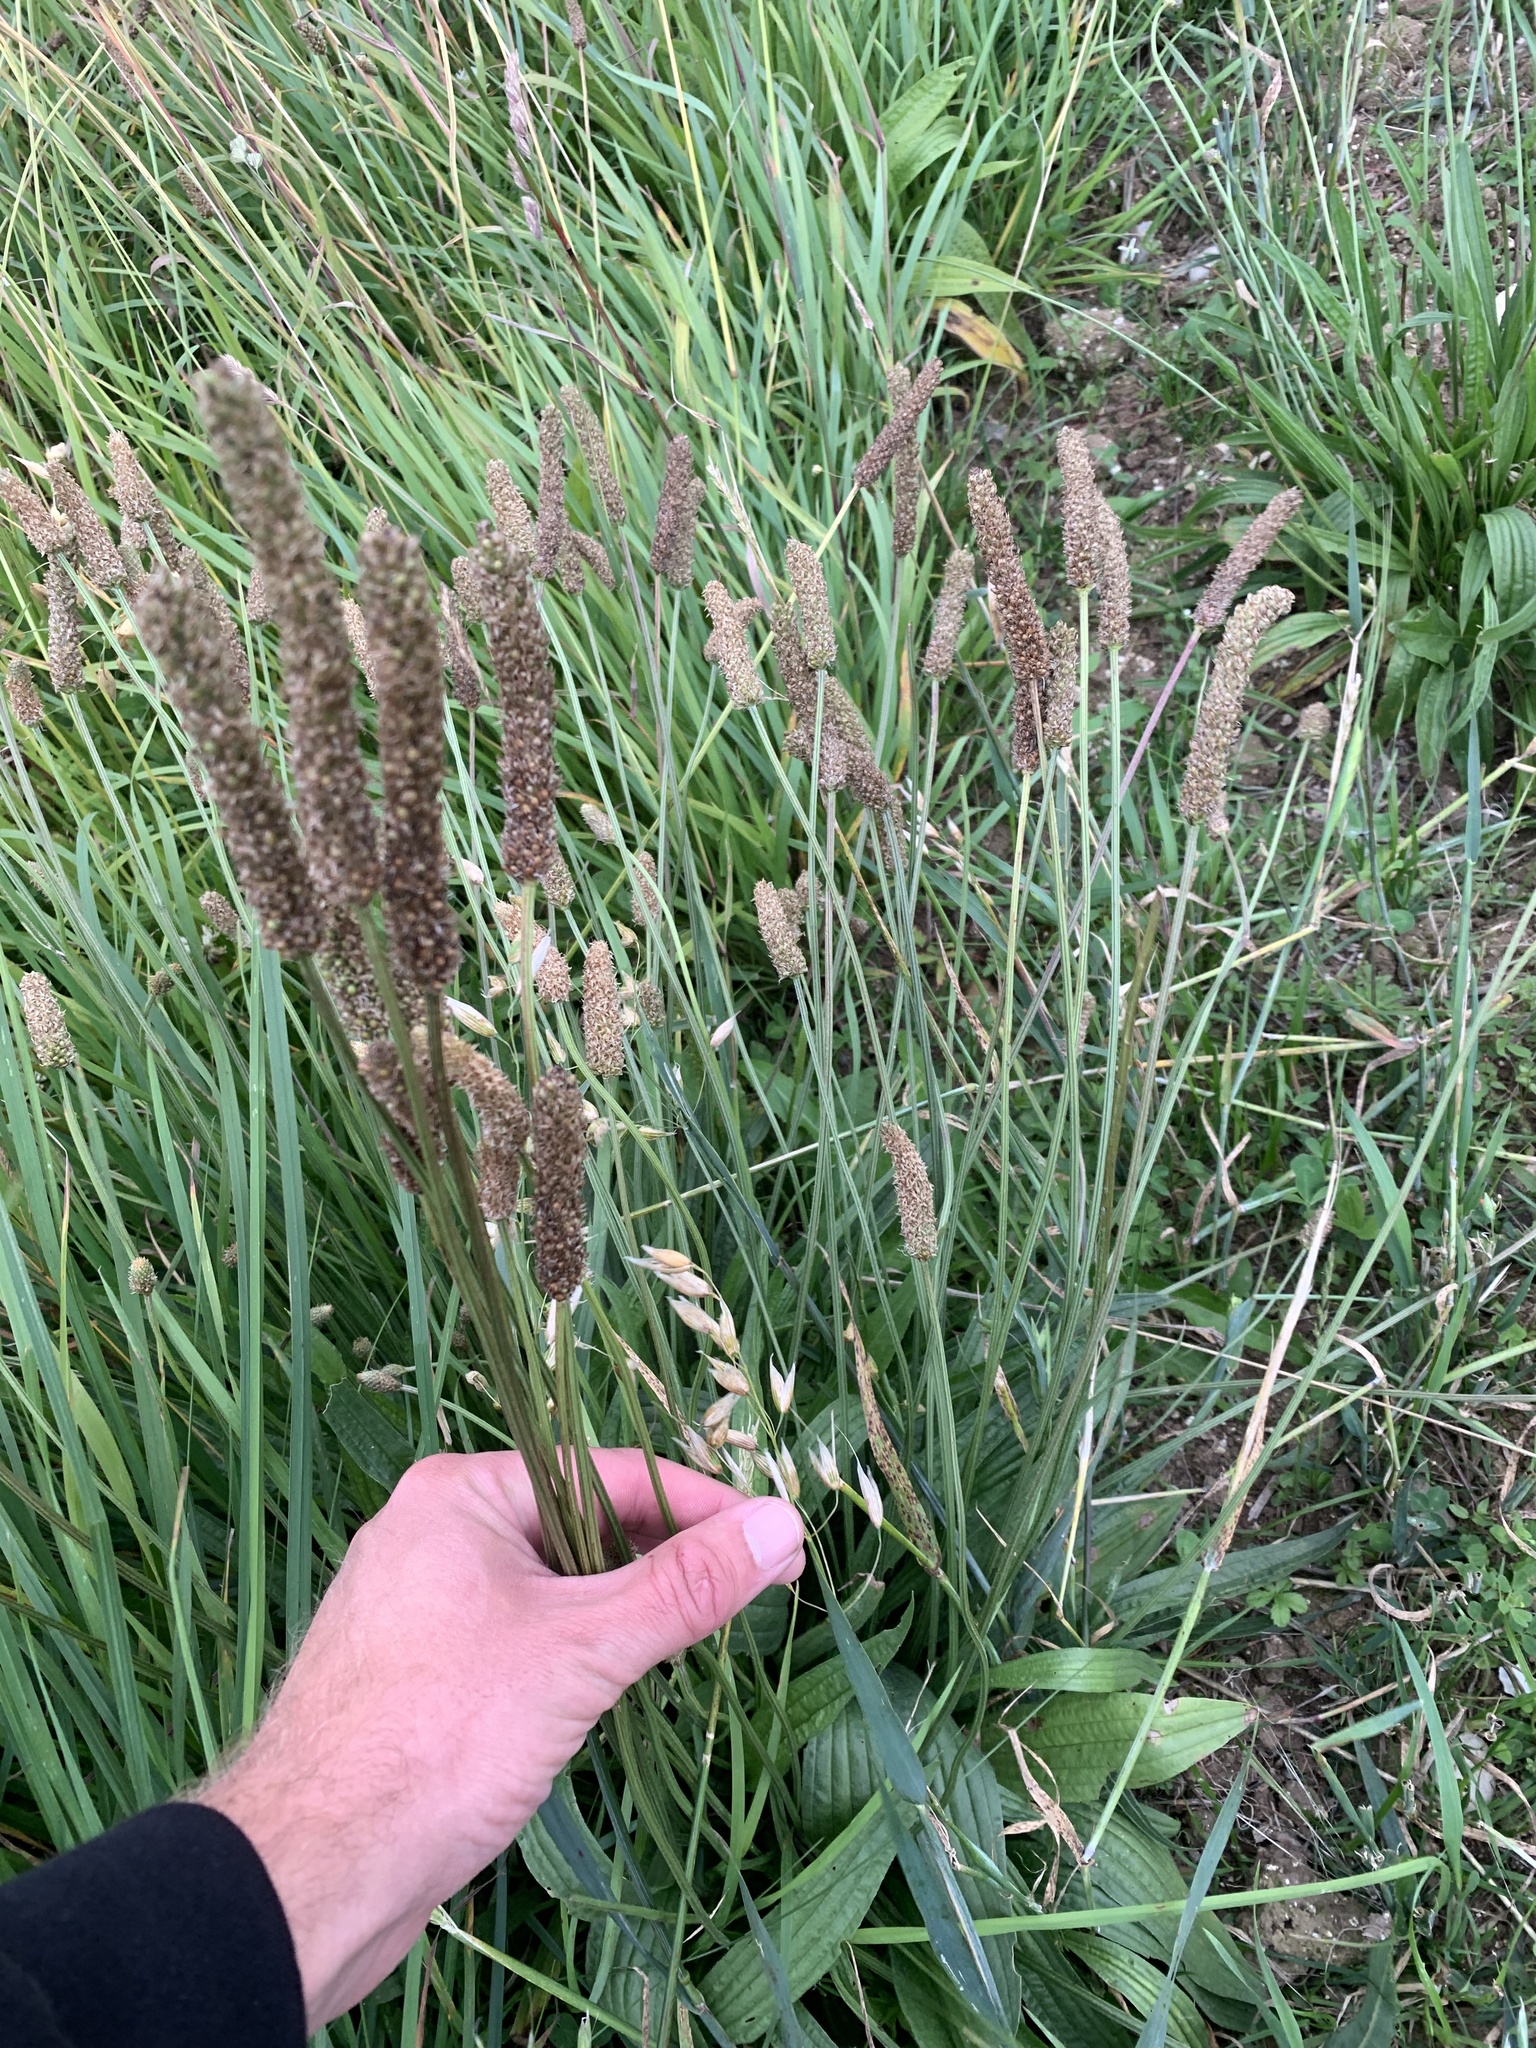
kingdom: Plantae
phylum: Tracheophyta
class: Magnoliopsida
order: Lamiales
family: Plantaginaceae
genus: Plantago
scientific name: Plantago lanceolata
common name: Ribwort plantain
